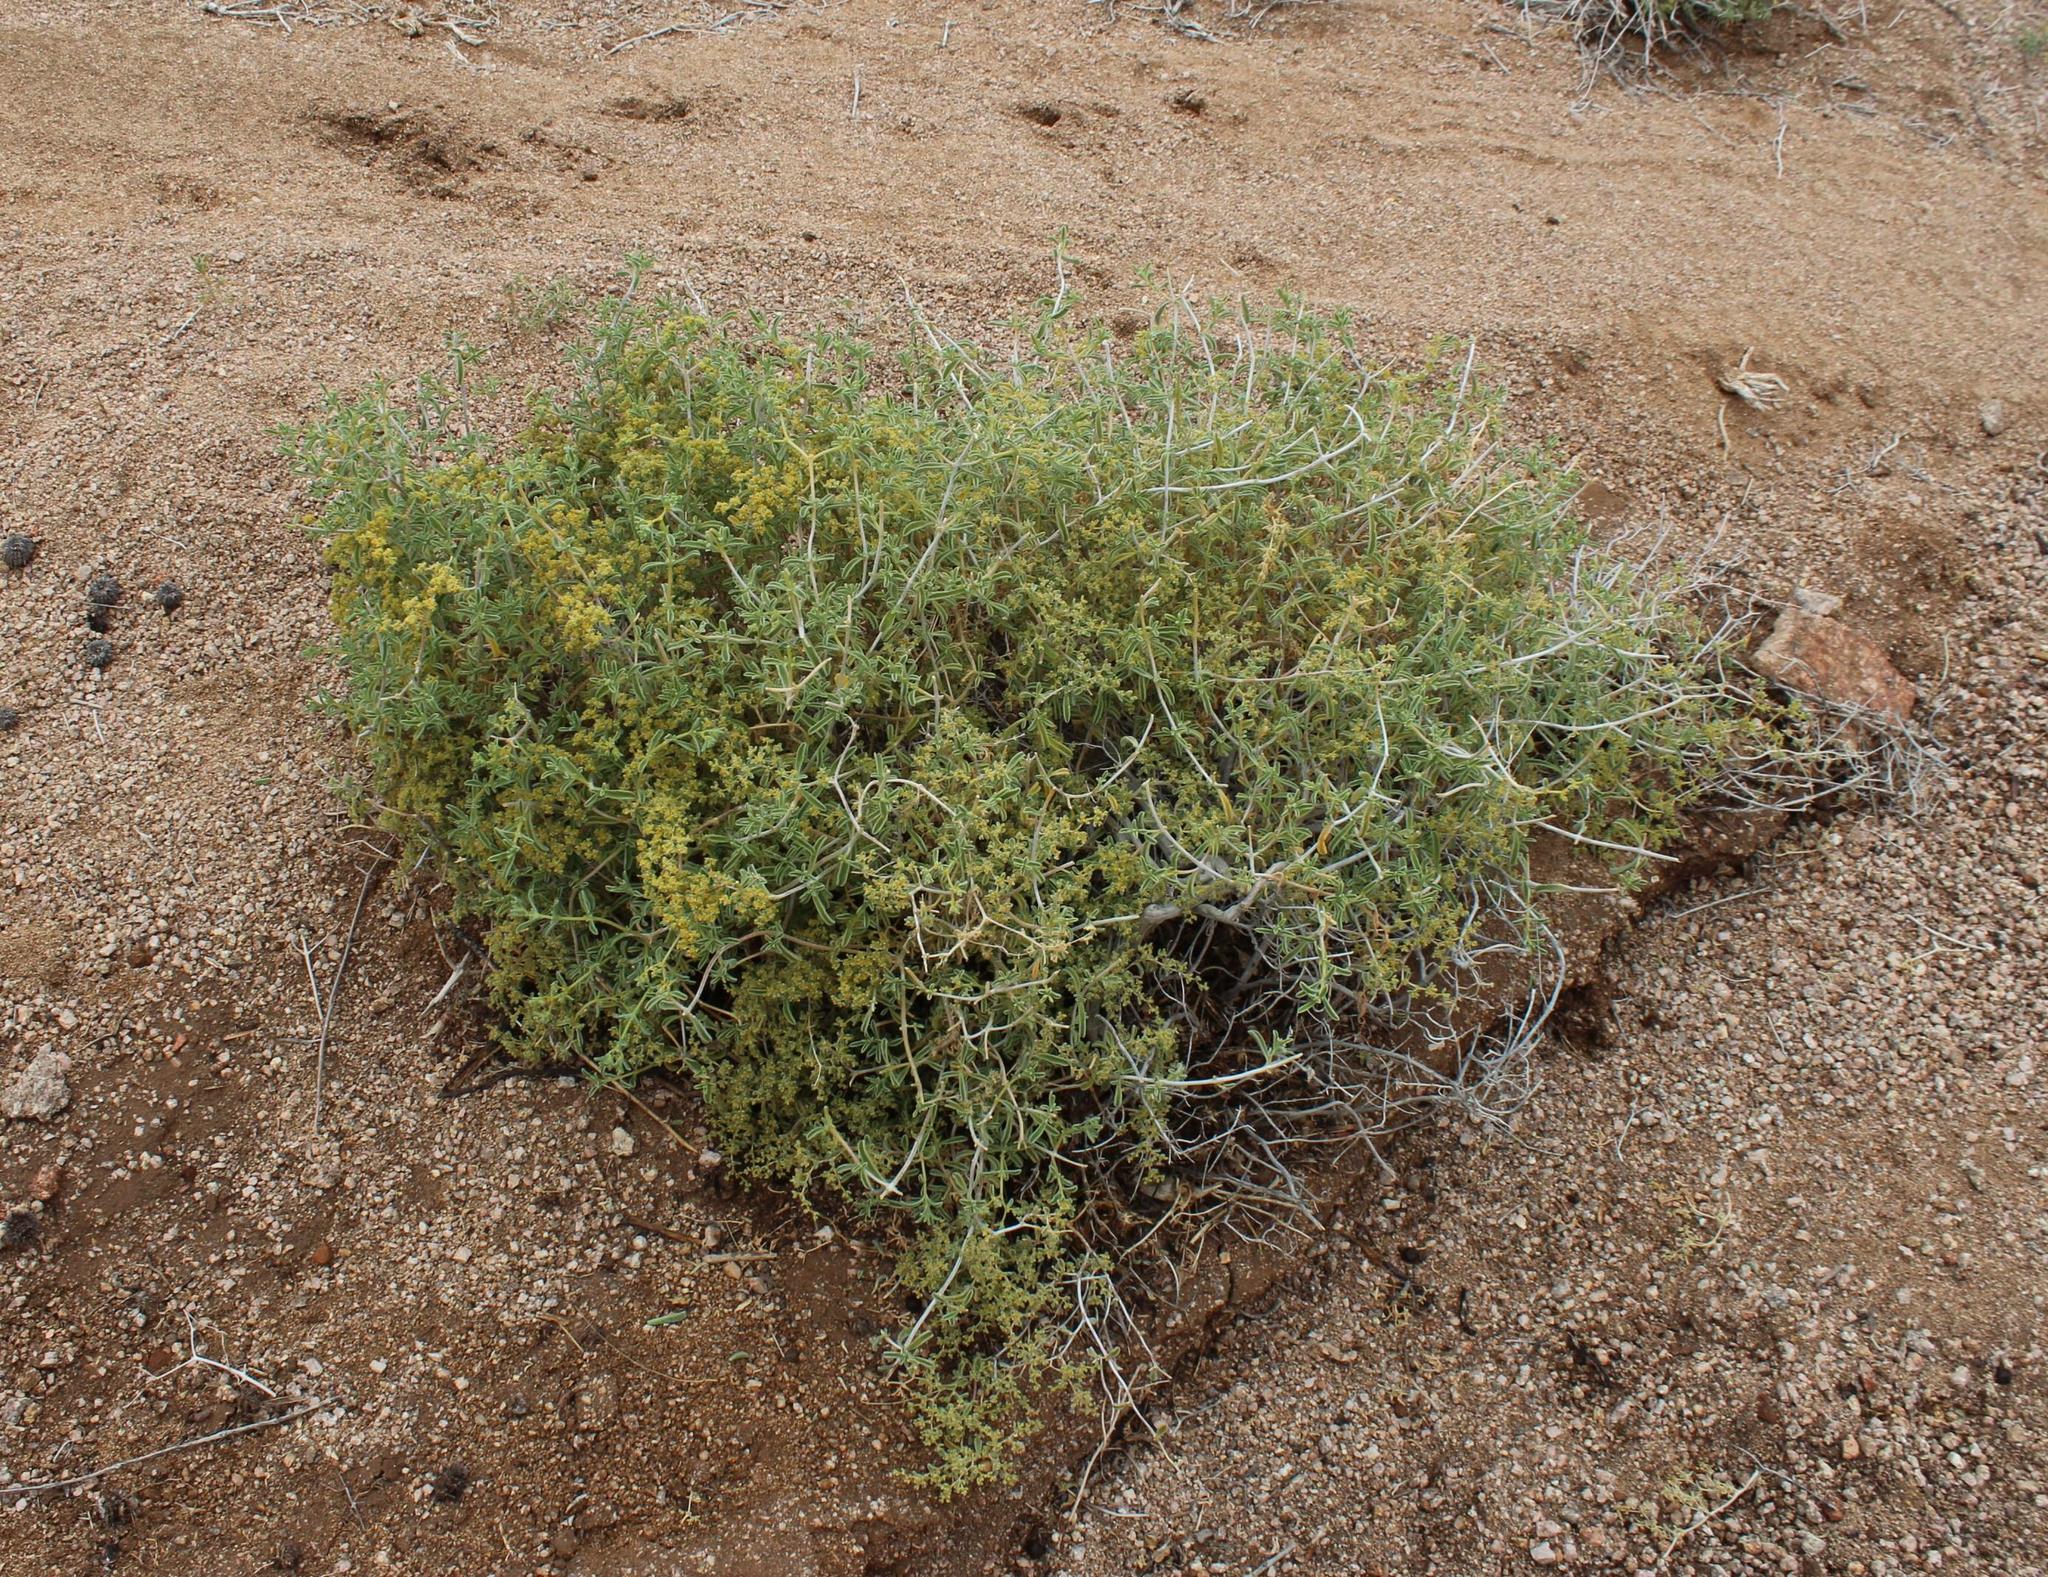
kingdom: Plantae
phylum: Tracheophyta
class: Magnoliopsida
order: Caryophyllales
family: Aizoaceae
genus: Aizoon
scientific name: Aizoon africanum
